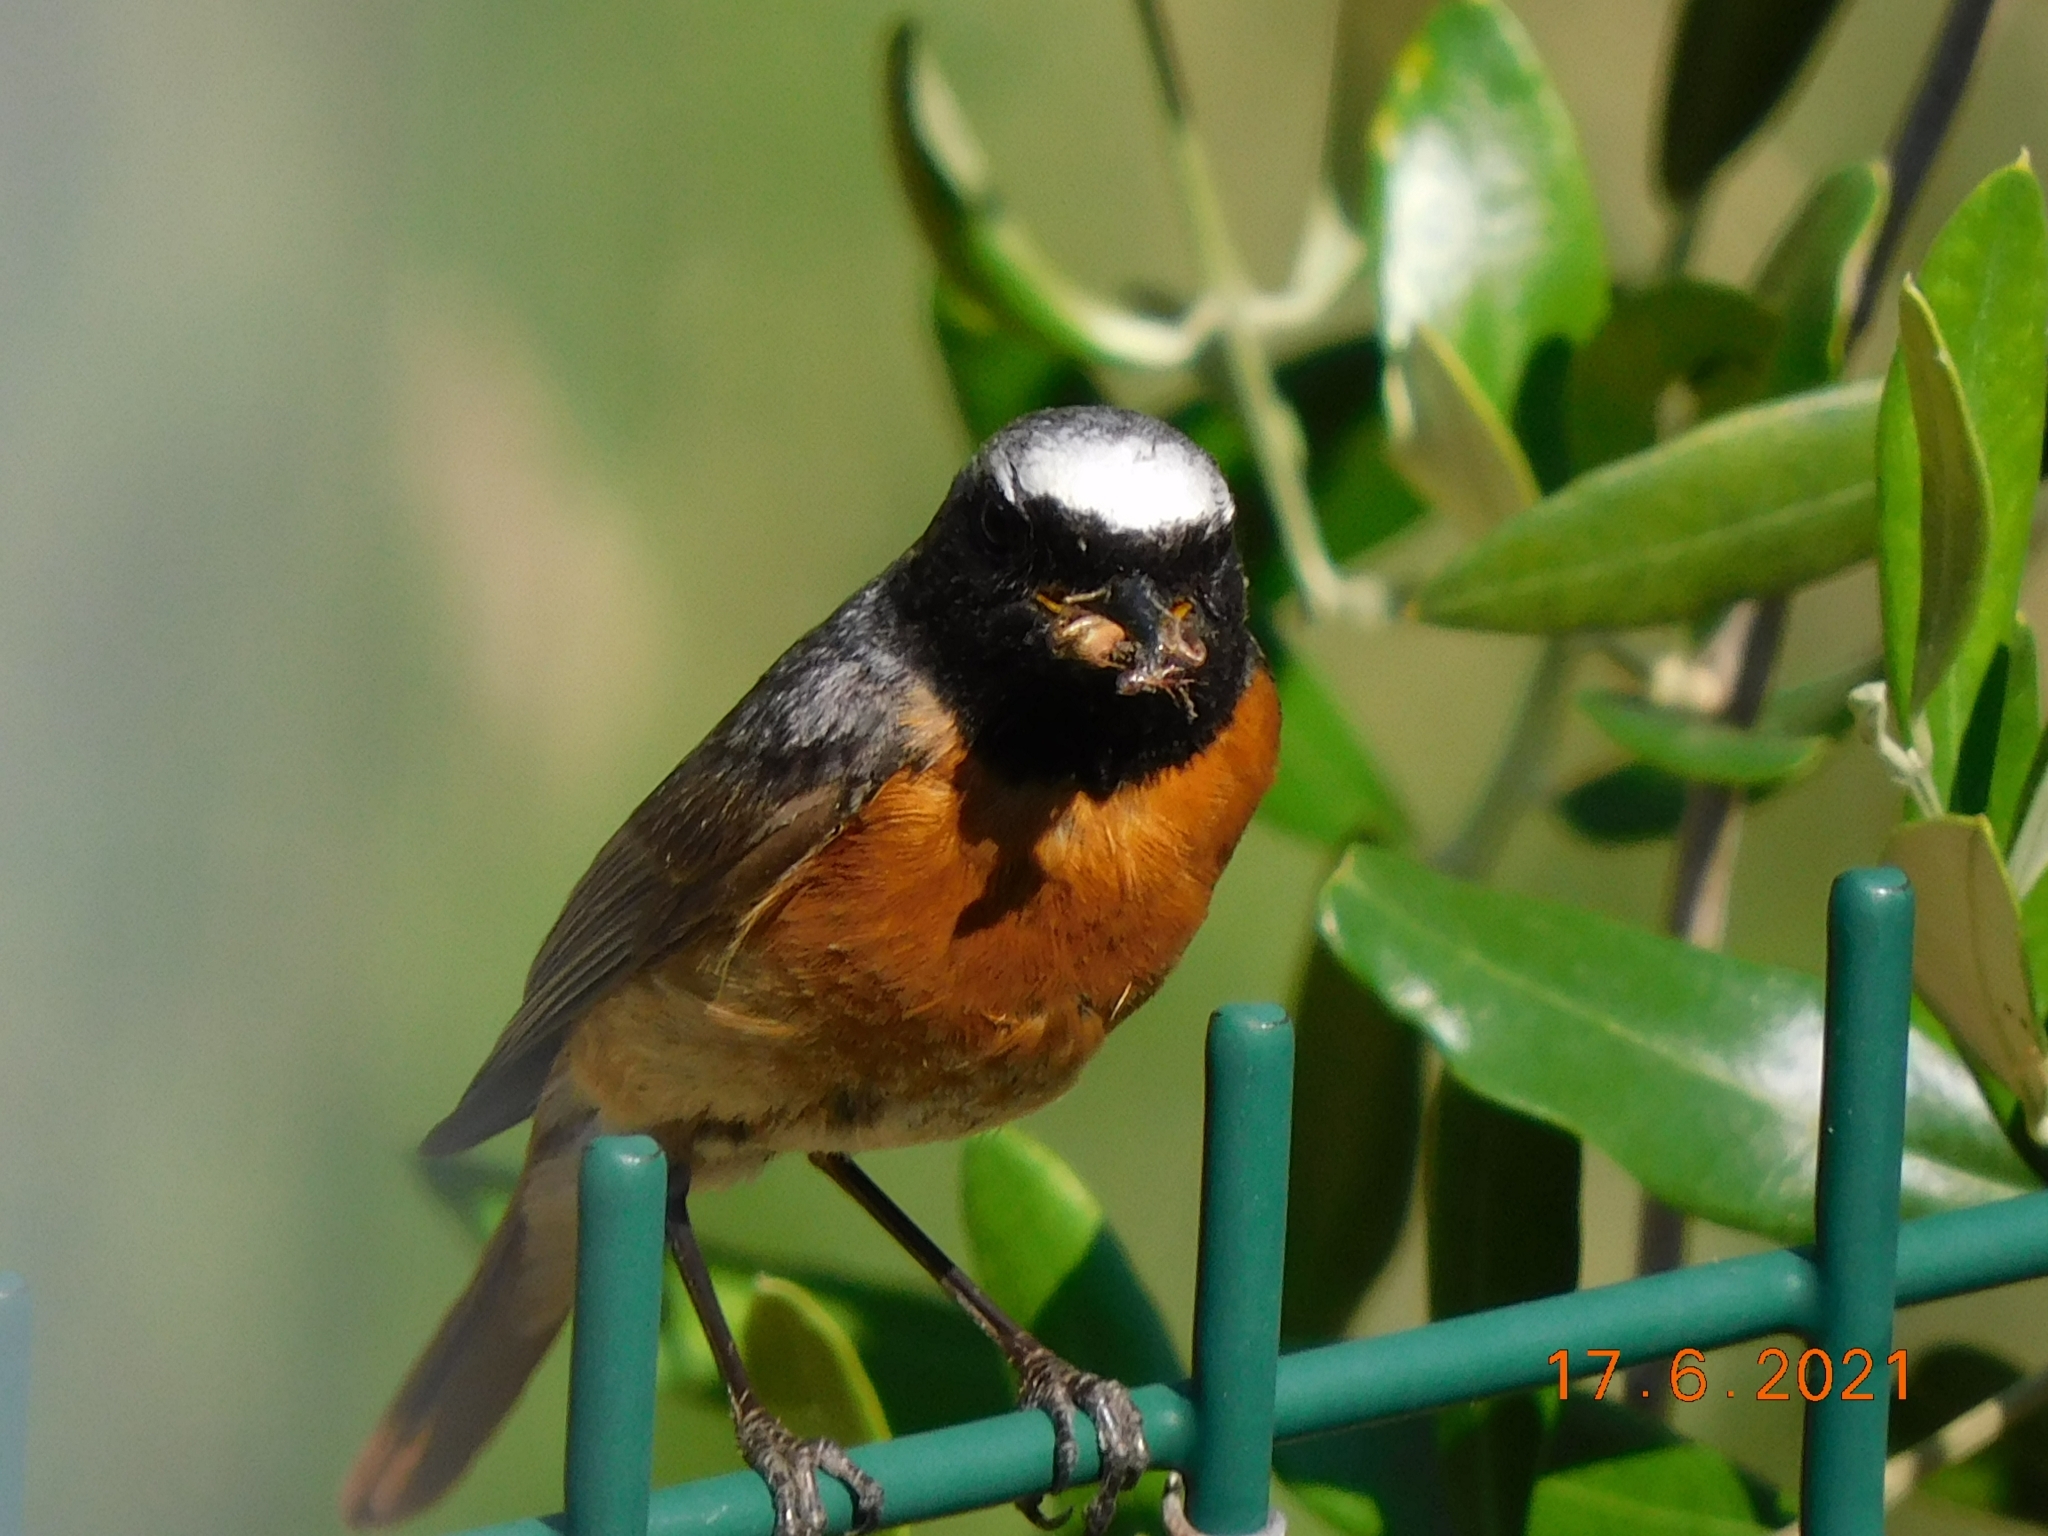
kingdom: Animalia
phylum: Chordata
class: Aves
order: Passeriformes
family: Muscicapidae
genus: Phoenicurus
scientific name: Phoenicurus phoenicurus
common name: Common redstart
